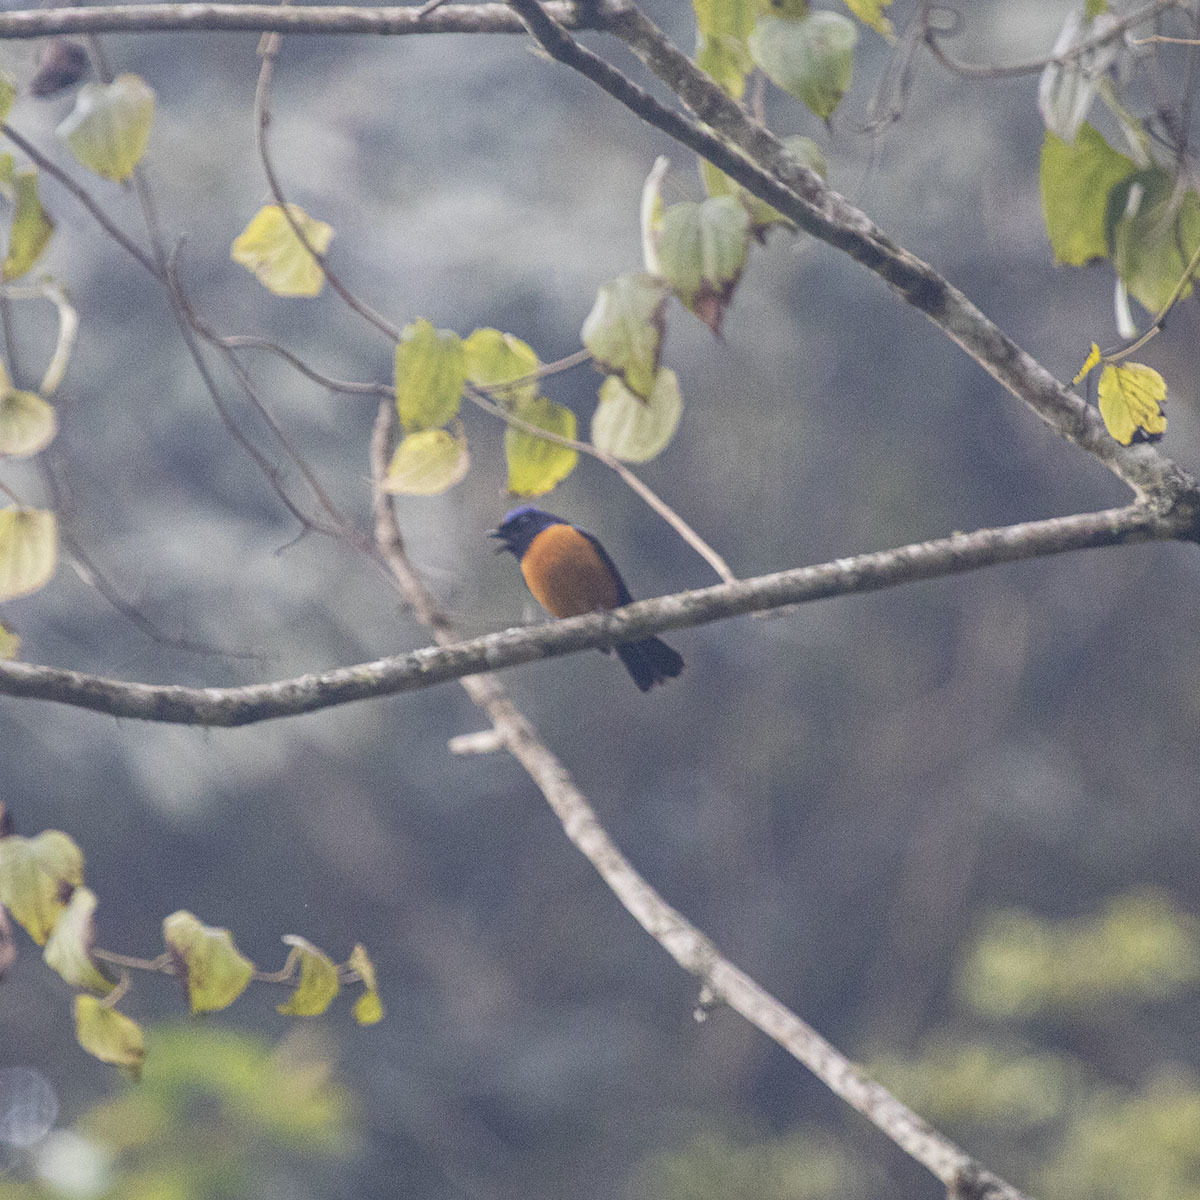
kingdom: Animalia
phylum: Chordata
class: Aves
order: Passeriformes
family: Muscicapidae
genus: Niltava
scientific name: Niltava sundara
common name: Rufous-bellied niltava
